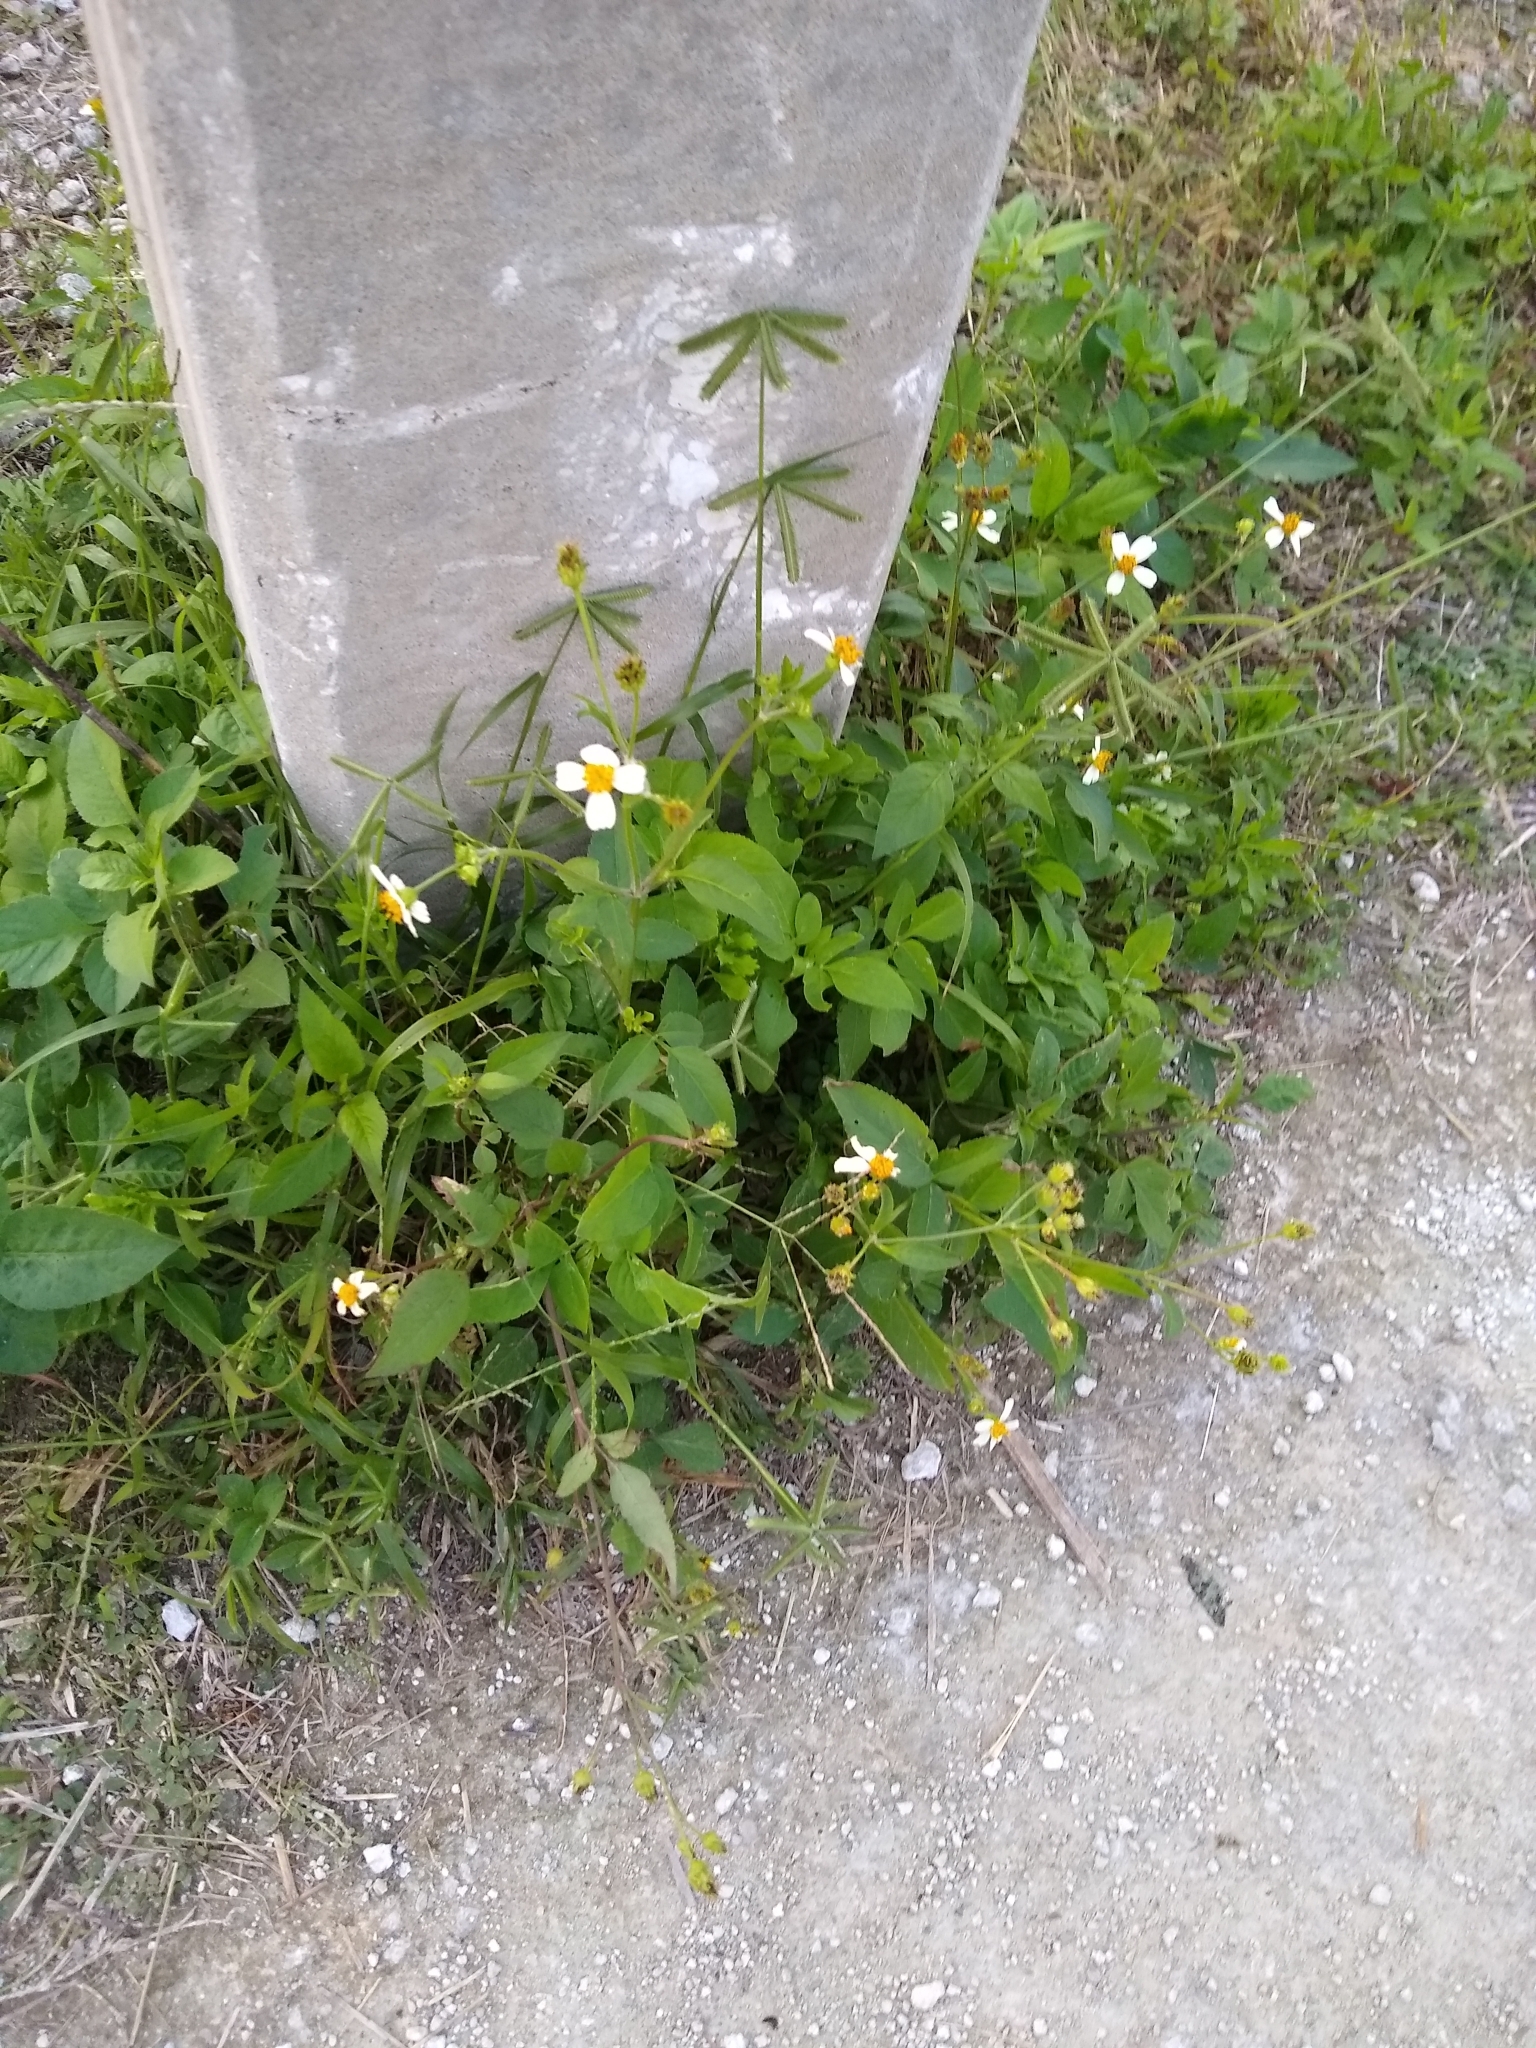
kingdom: Plantae
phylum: Tracheophyta
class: Magnoliopsida
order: Asterales
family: Asteraceae
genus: Bidens
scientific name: Bidens alba
